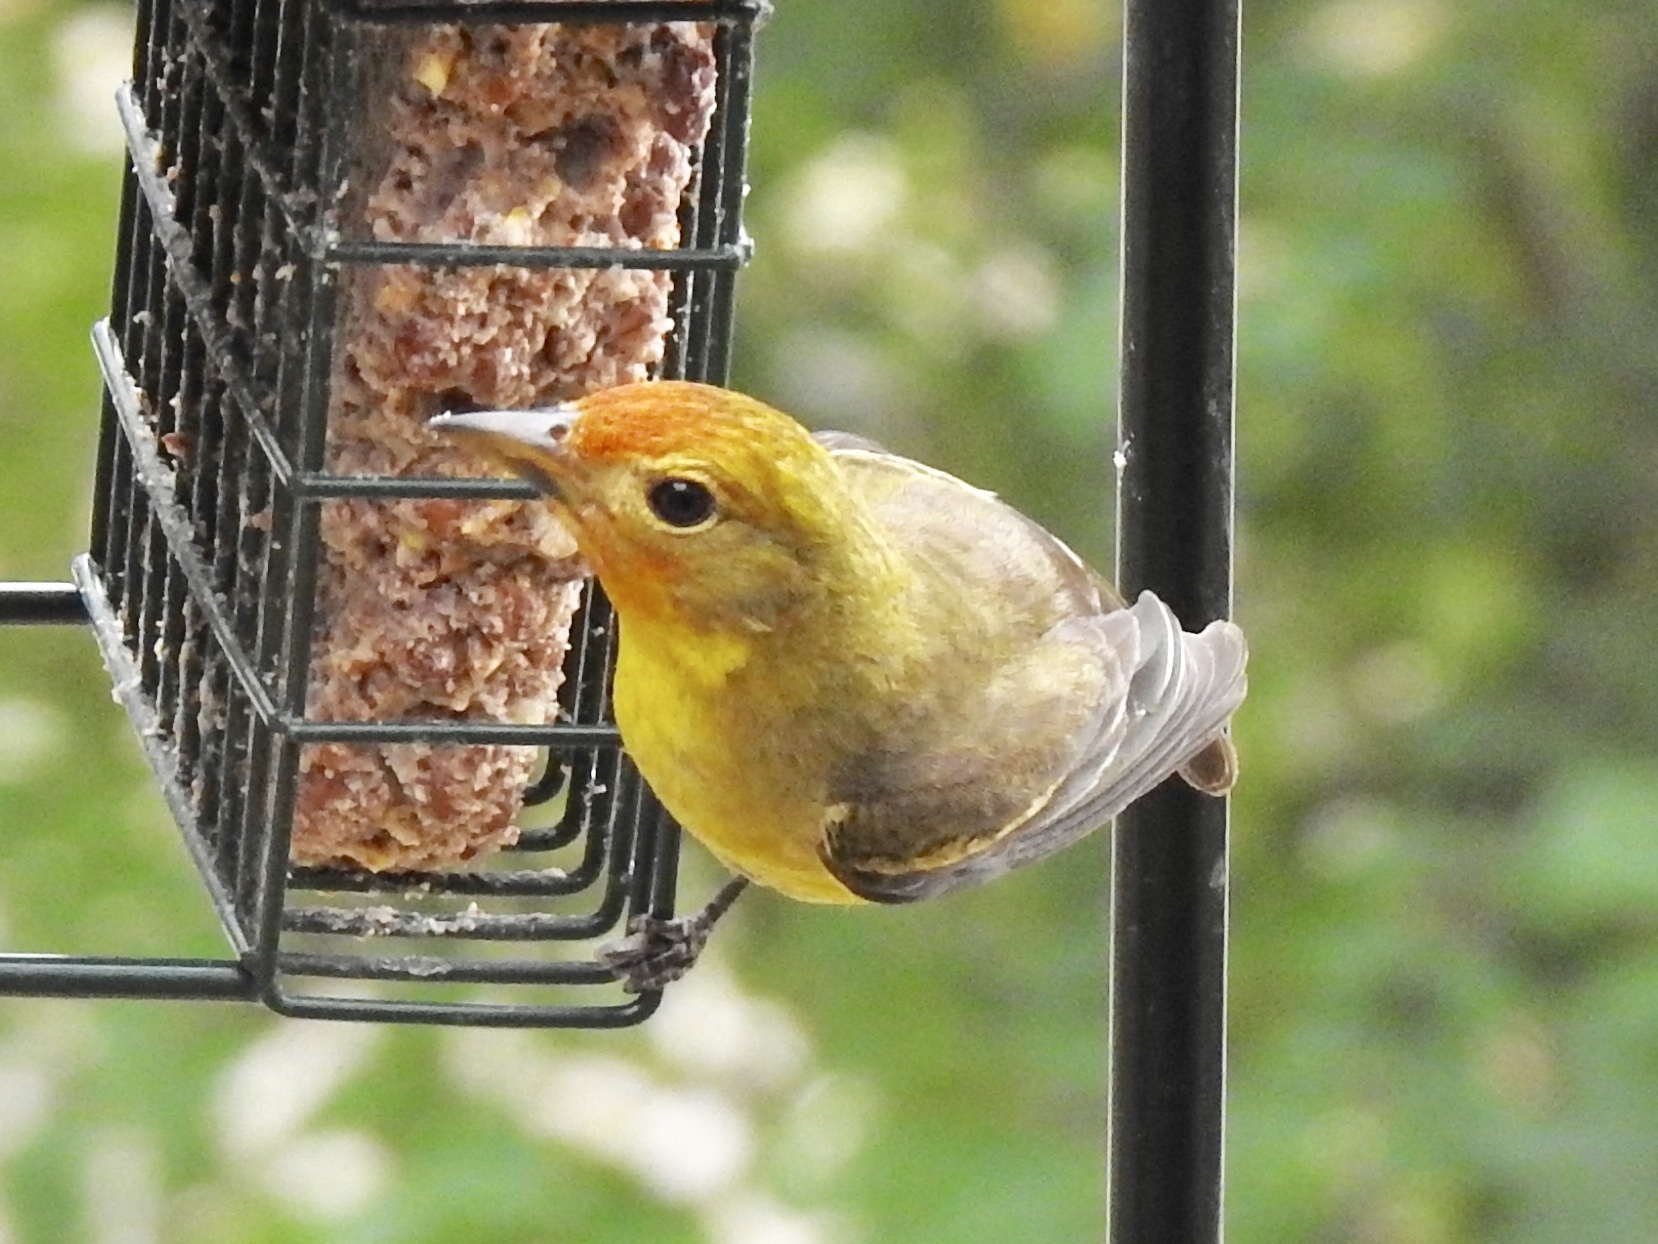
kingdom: Animalia
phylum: Chordata
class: Aves
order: Passeriformes
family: Cardinalidae
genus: Piranga
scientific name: Piranga ludoviciana
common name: Western tanager
